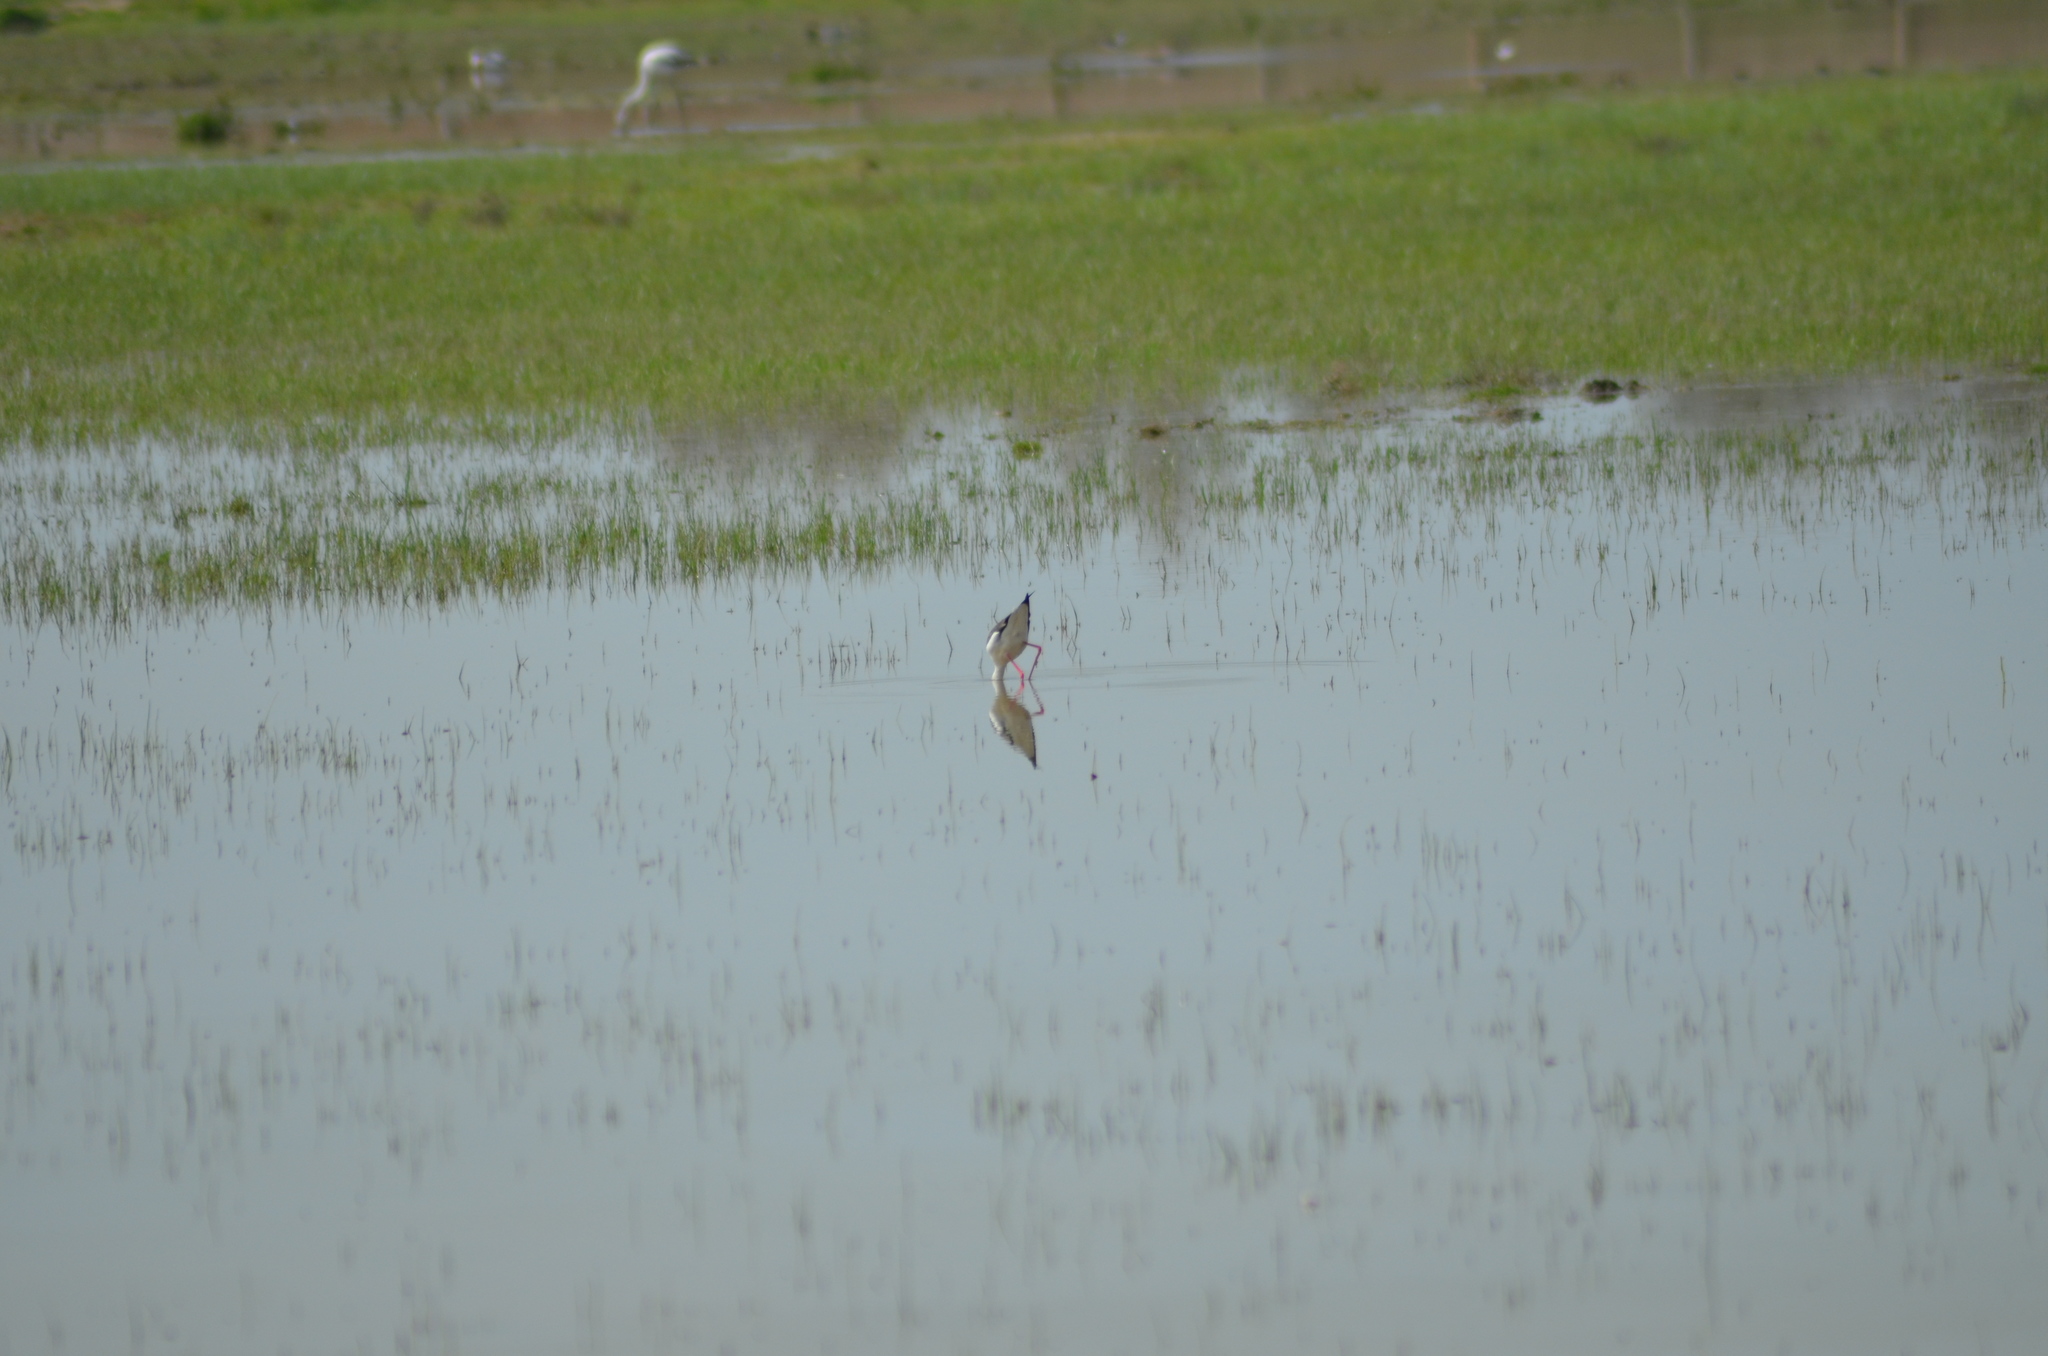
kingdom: Animalia
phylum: Chordata
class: Aves
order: Charadriiformes
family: Recurvirostridae
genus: Himantopus
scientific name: Himantopus himantopus
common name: Black-winged stilt
